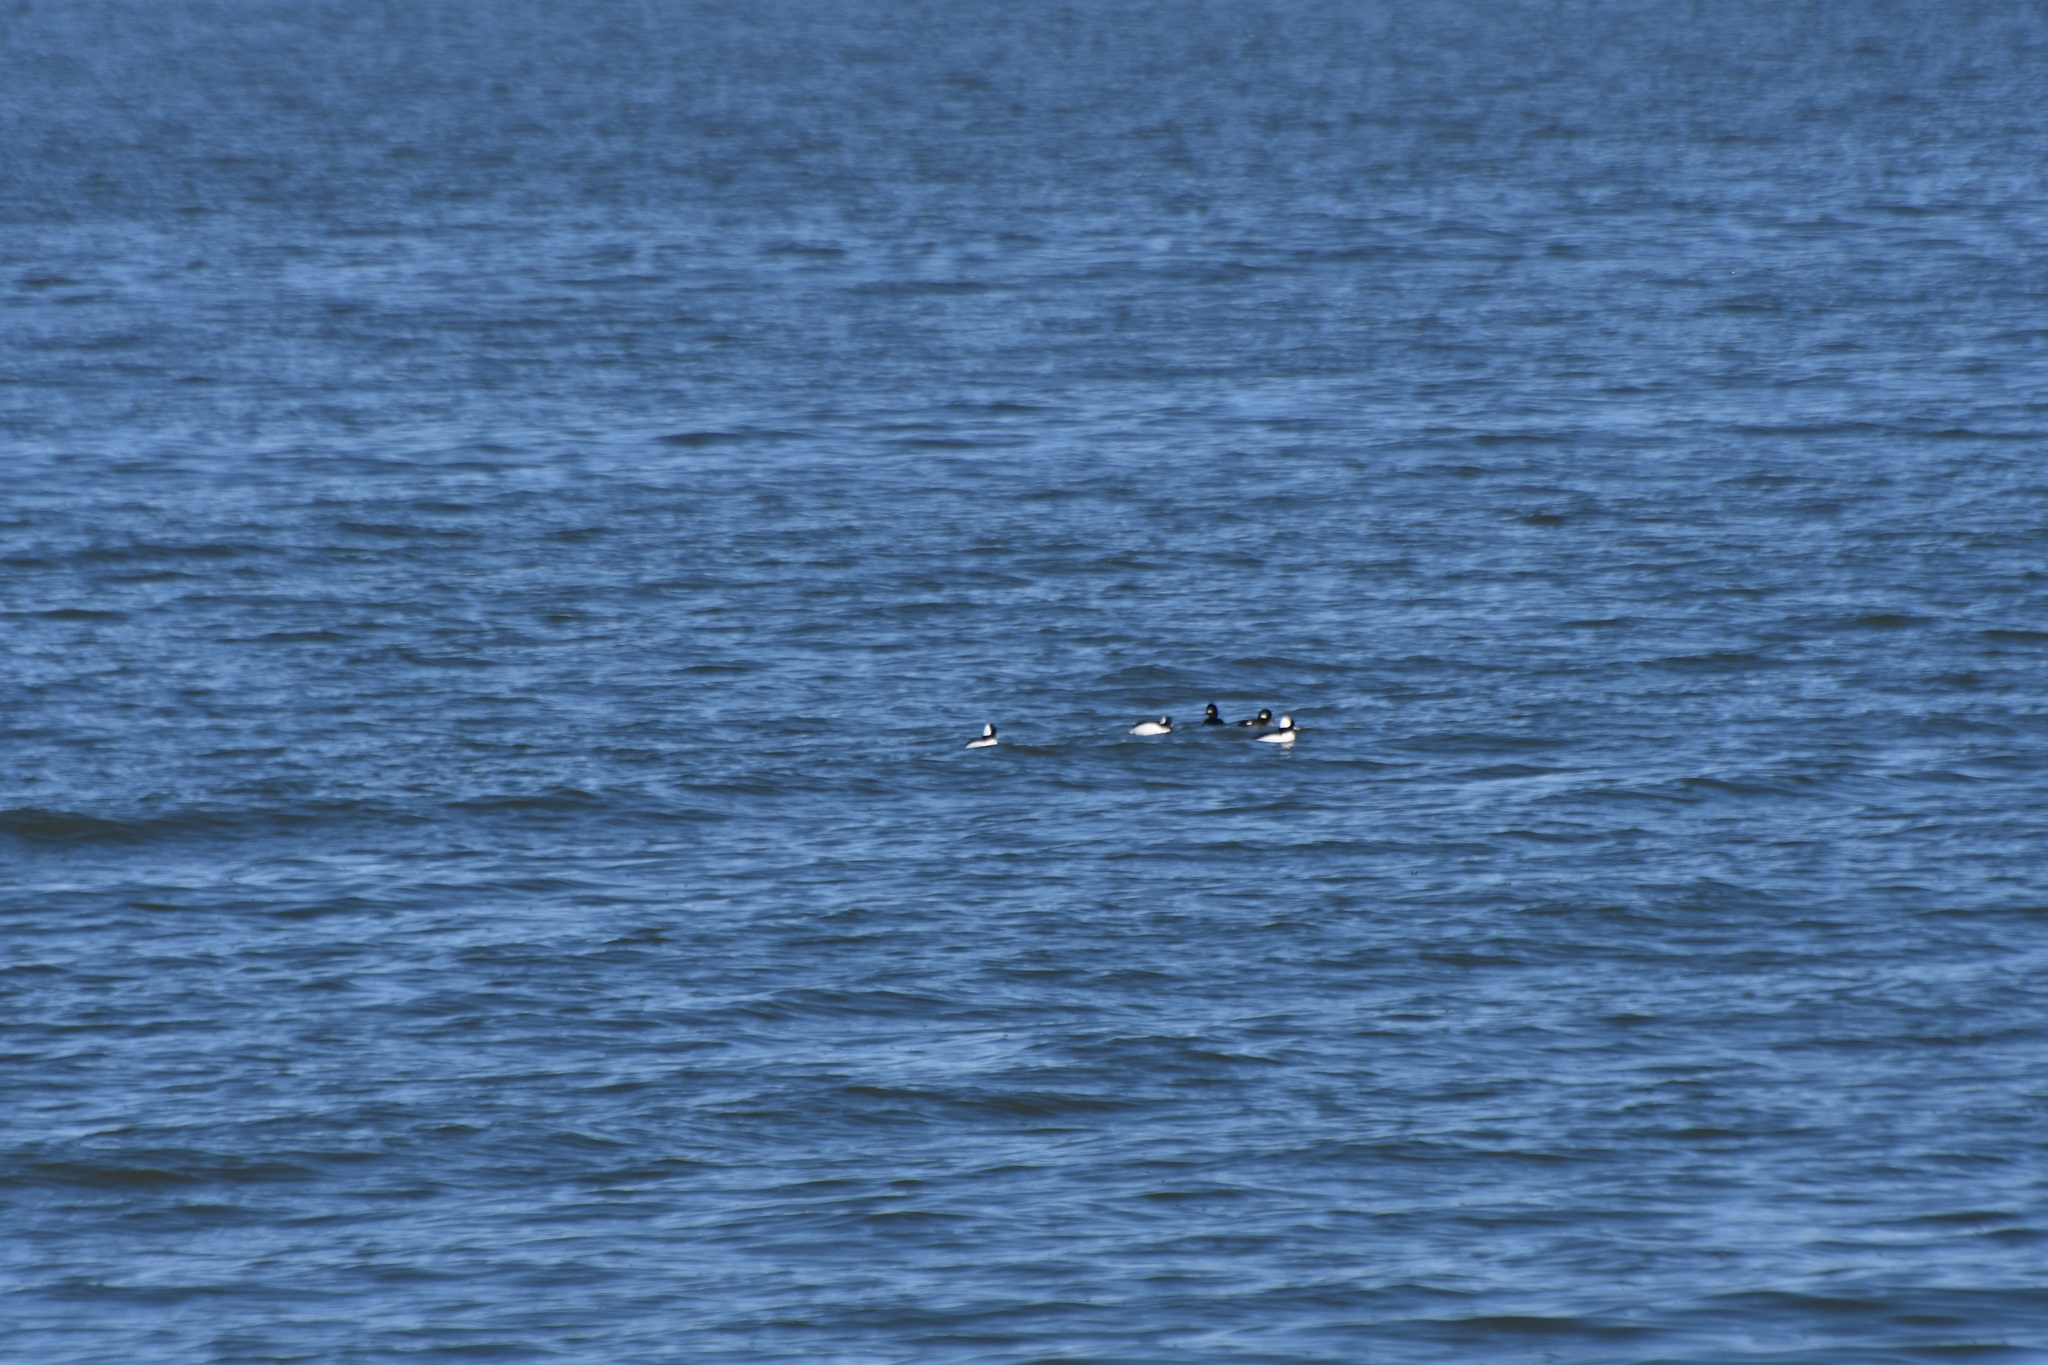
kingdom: Animalia
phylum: Chordata
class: Aves
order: Anseriformes
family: Anatidae
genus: Bucephala
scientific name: Bucephala albeola
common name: Bufflehead
